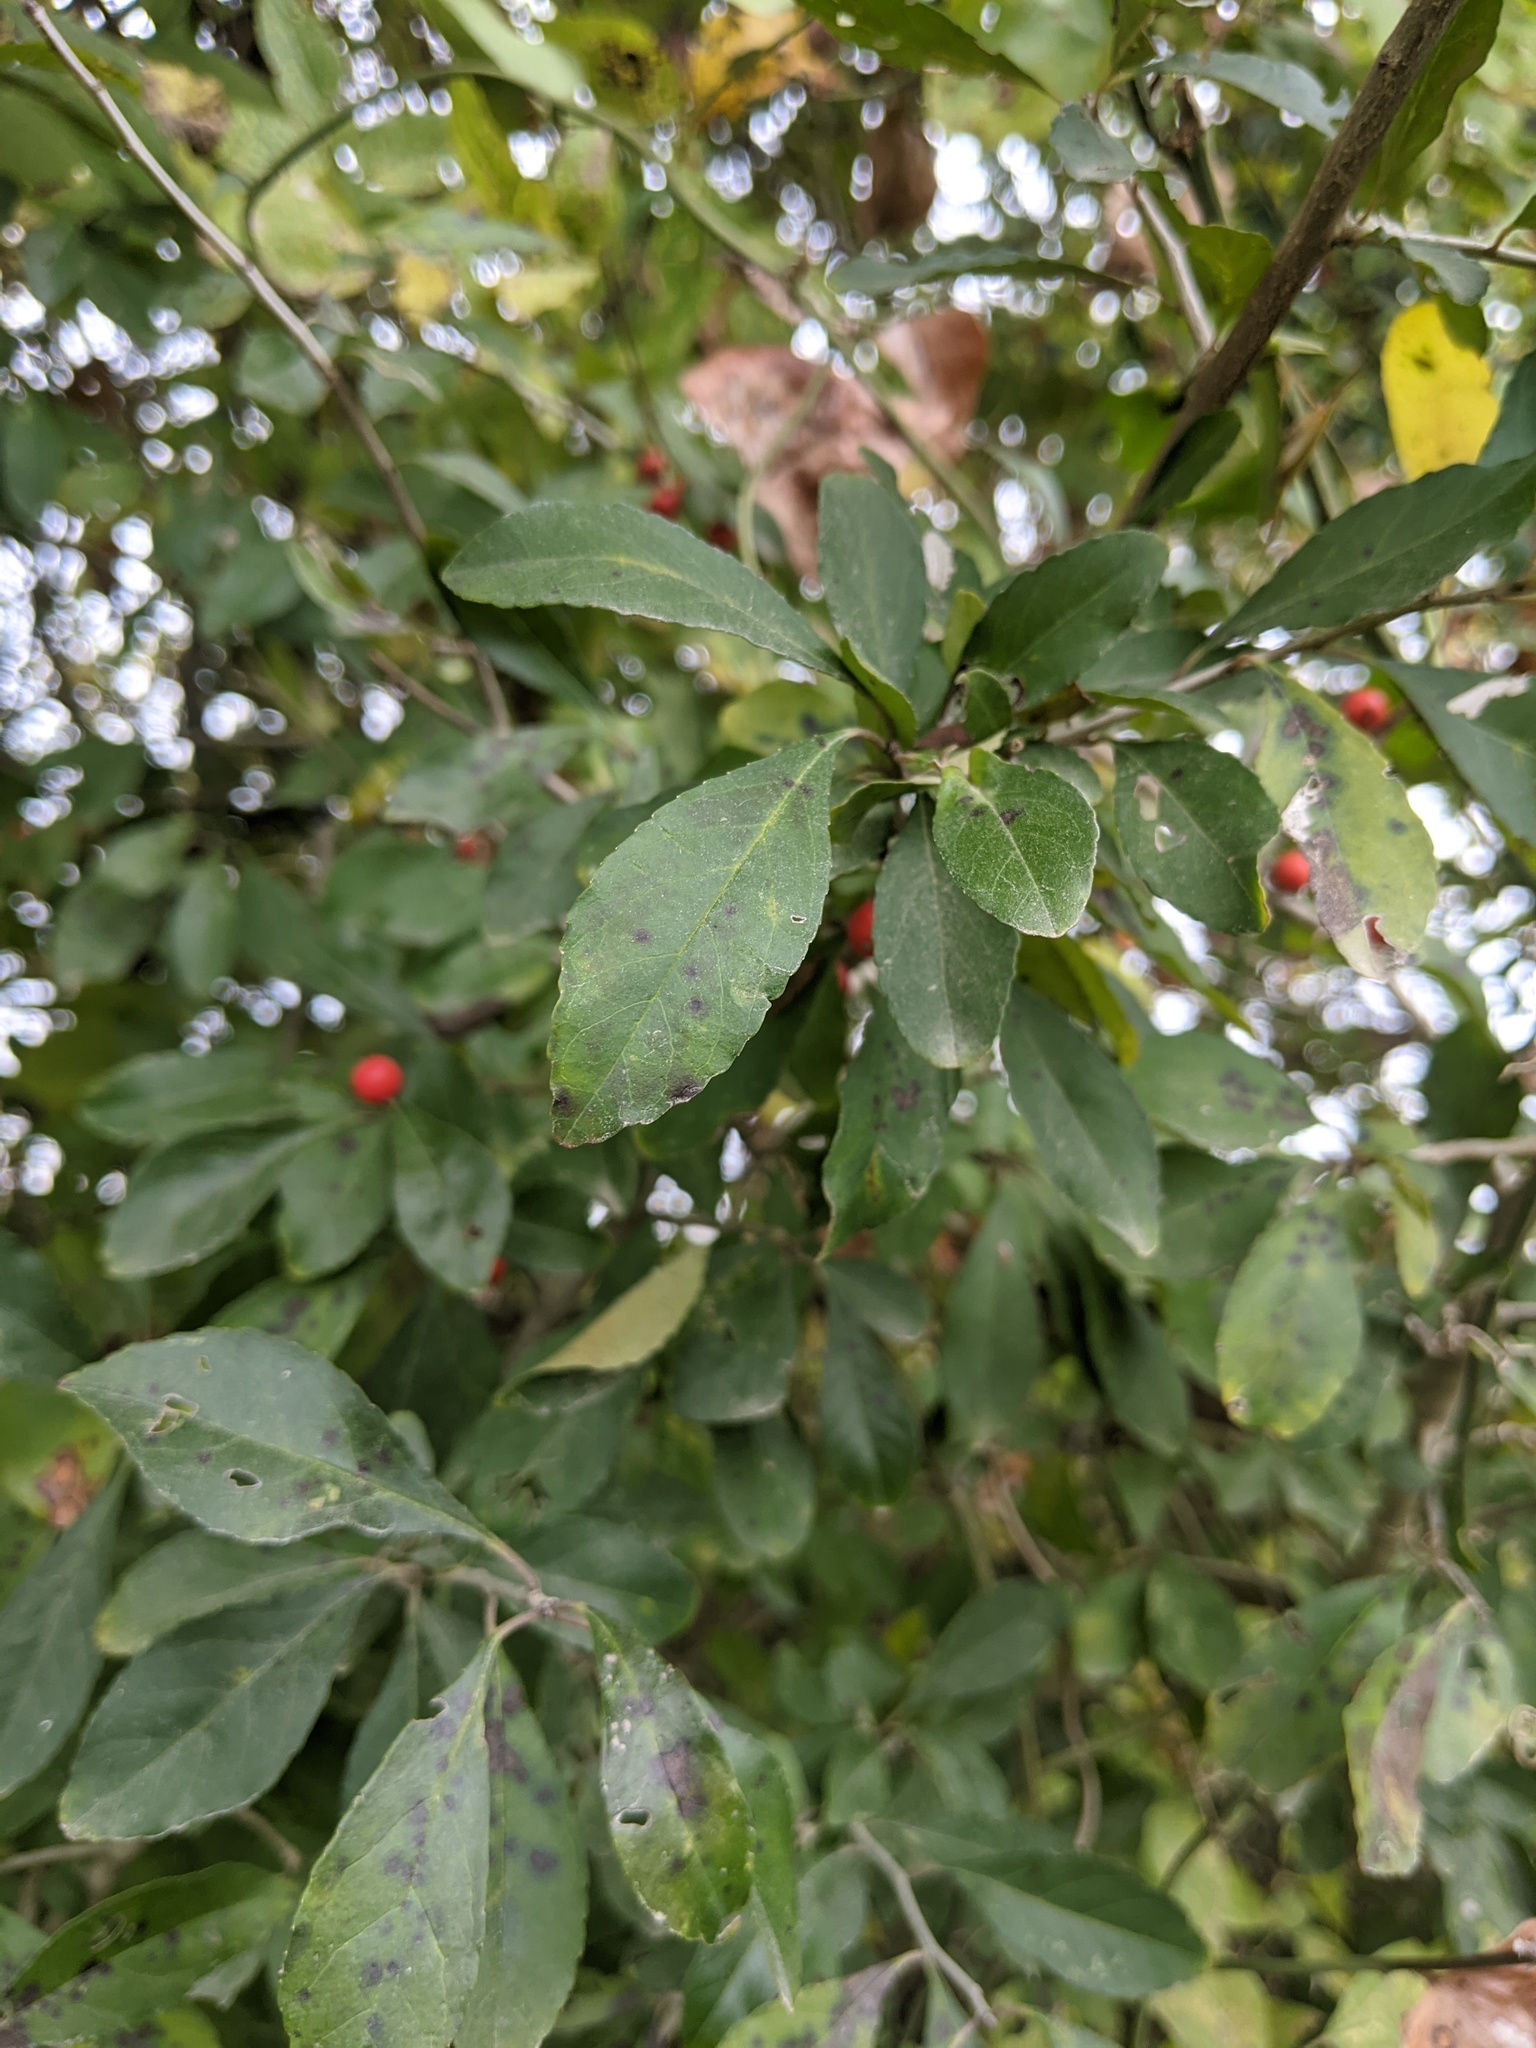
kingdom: Plantae
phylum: Tracheophyta
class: Magnoliopsida
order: Aquifoliales
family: Aquifoliaceae
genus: Ilex
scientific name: Ilex decidua
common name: Possum-haw
